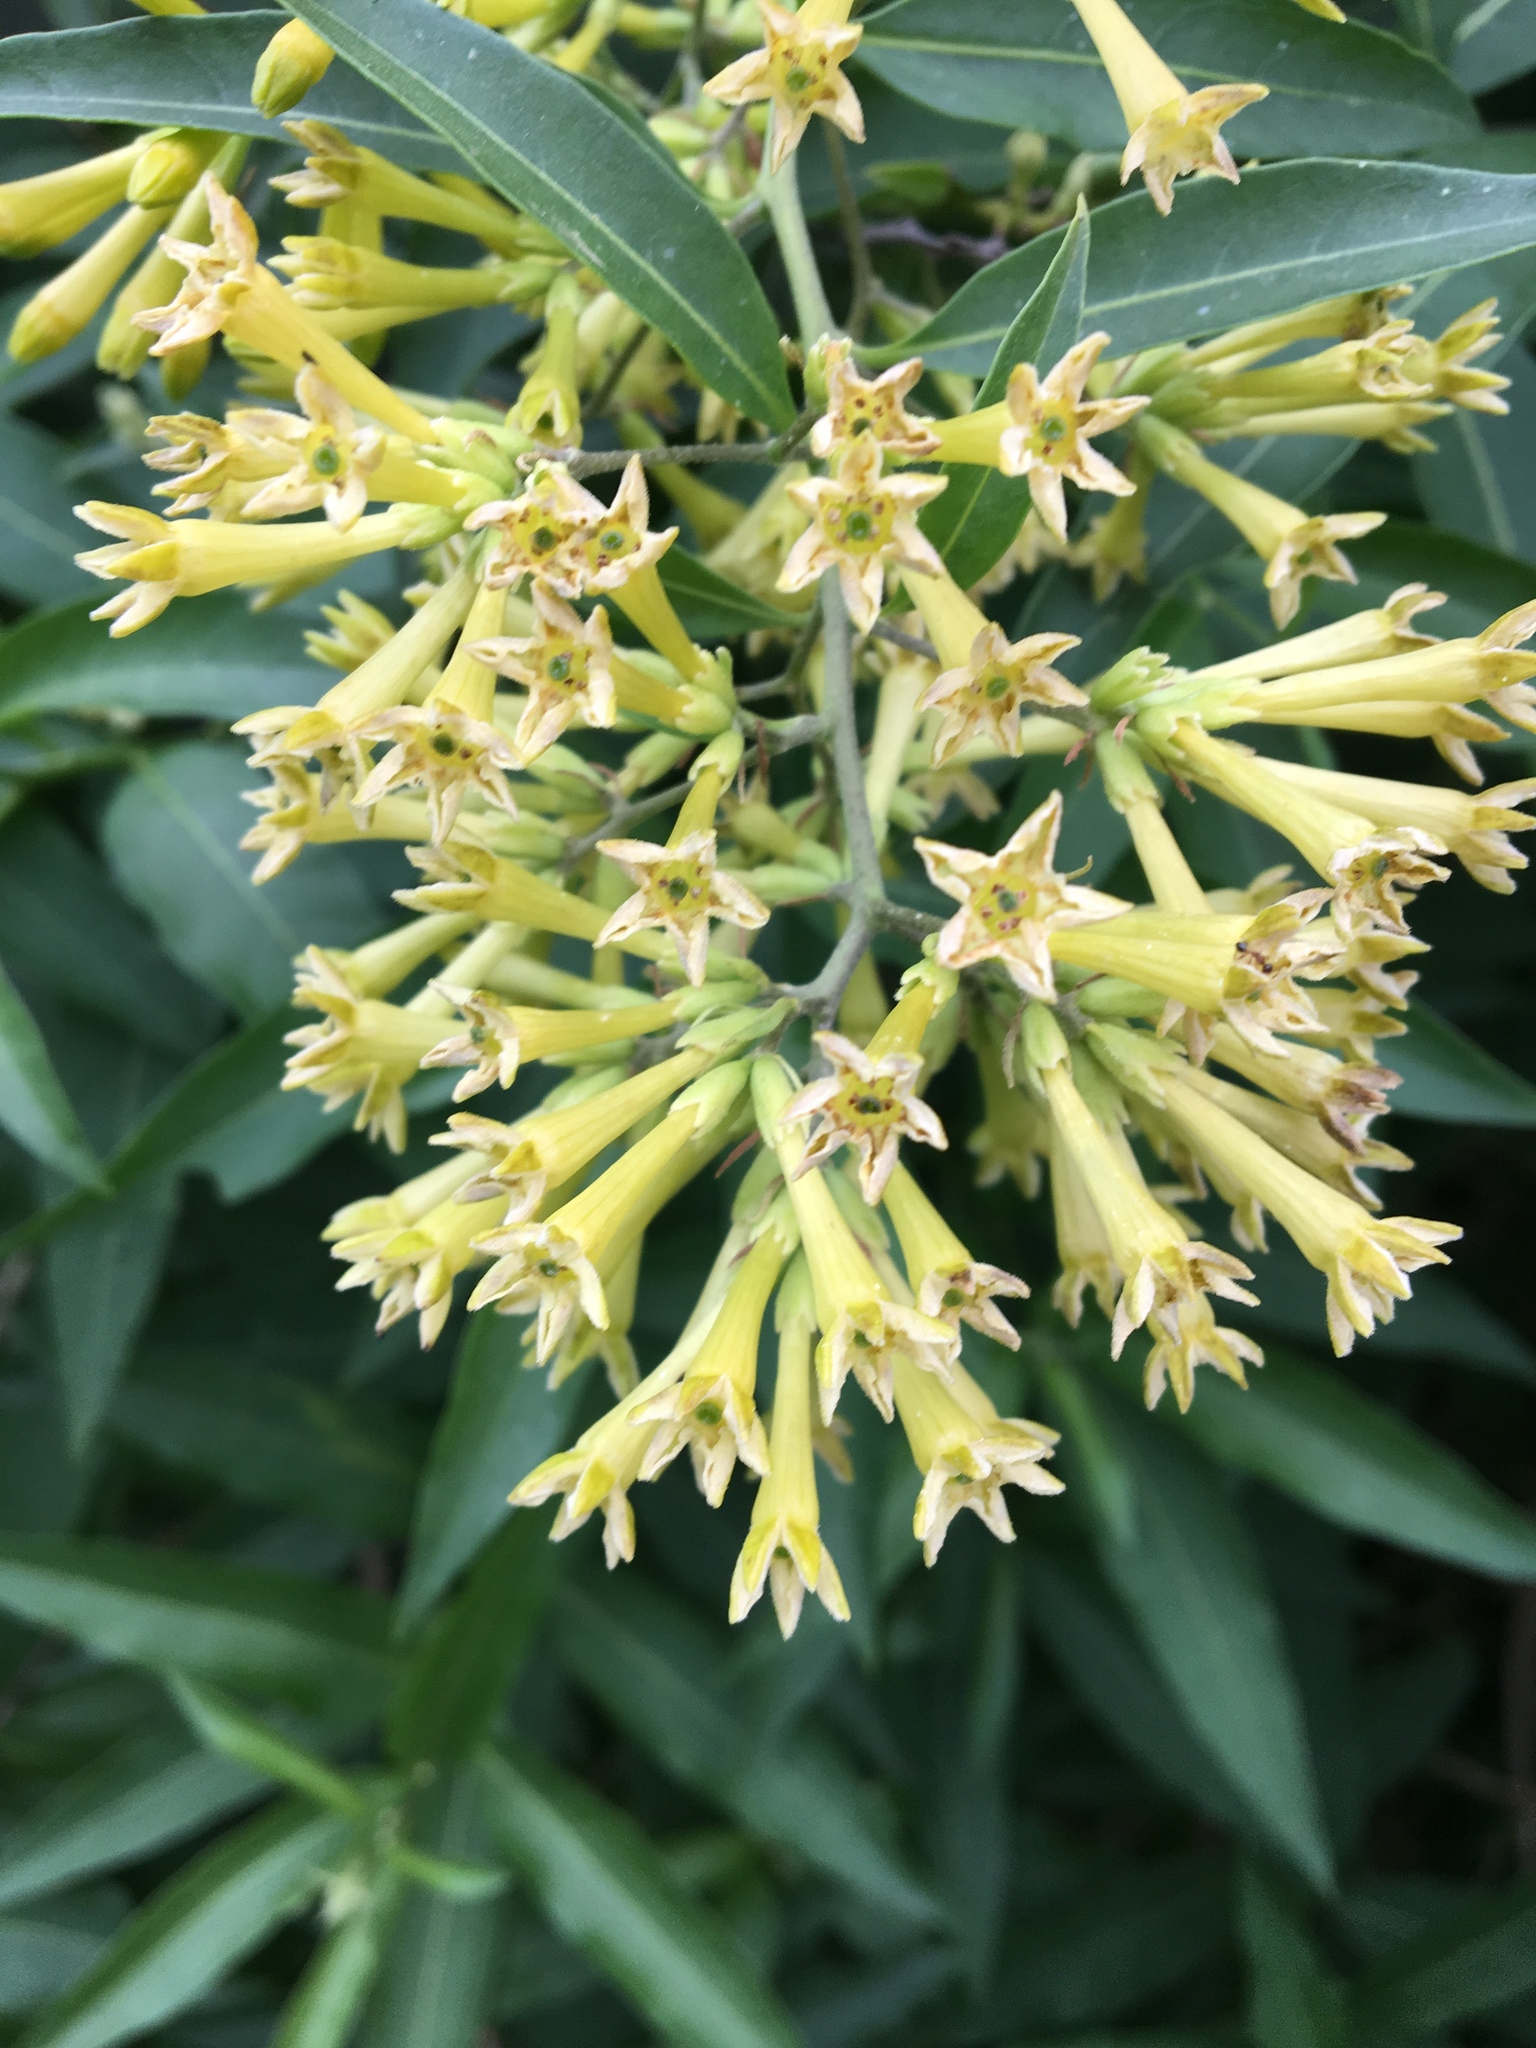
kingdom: Plantae
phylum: Tracheophyta
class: Magnoliopsida
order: Solanales
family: Solanaceae
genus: Cestrum
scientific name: Cestrum parqui
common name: Chilean cestrum
